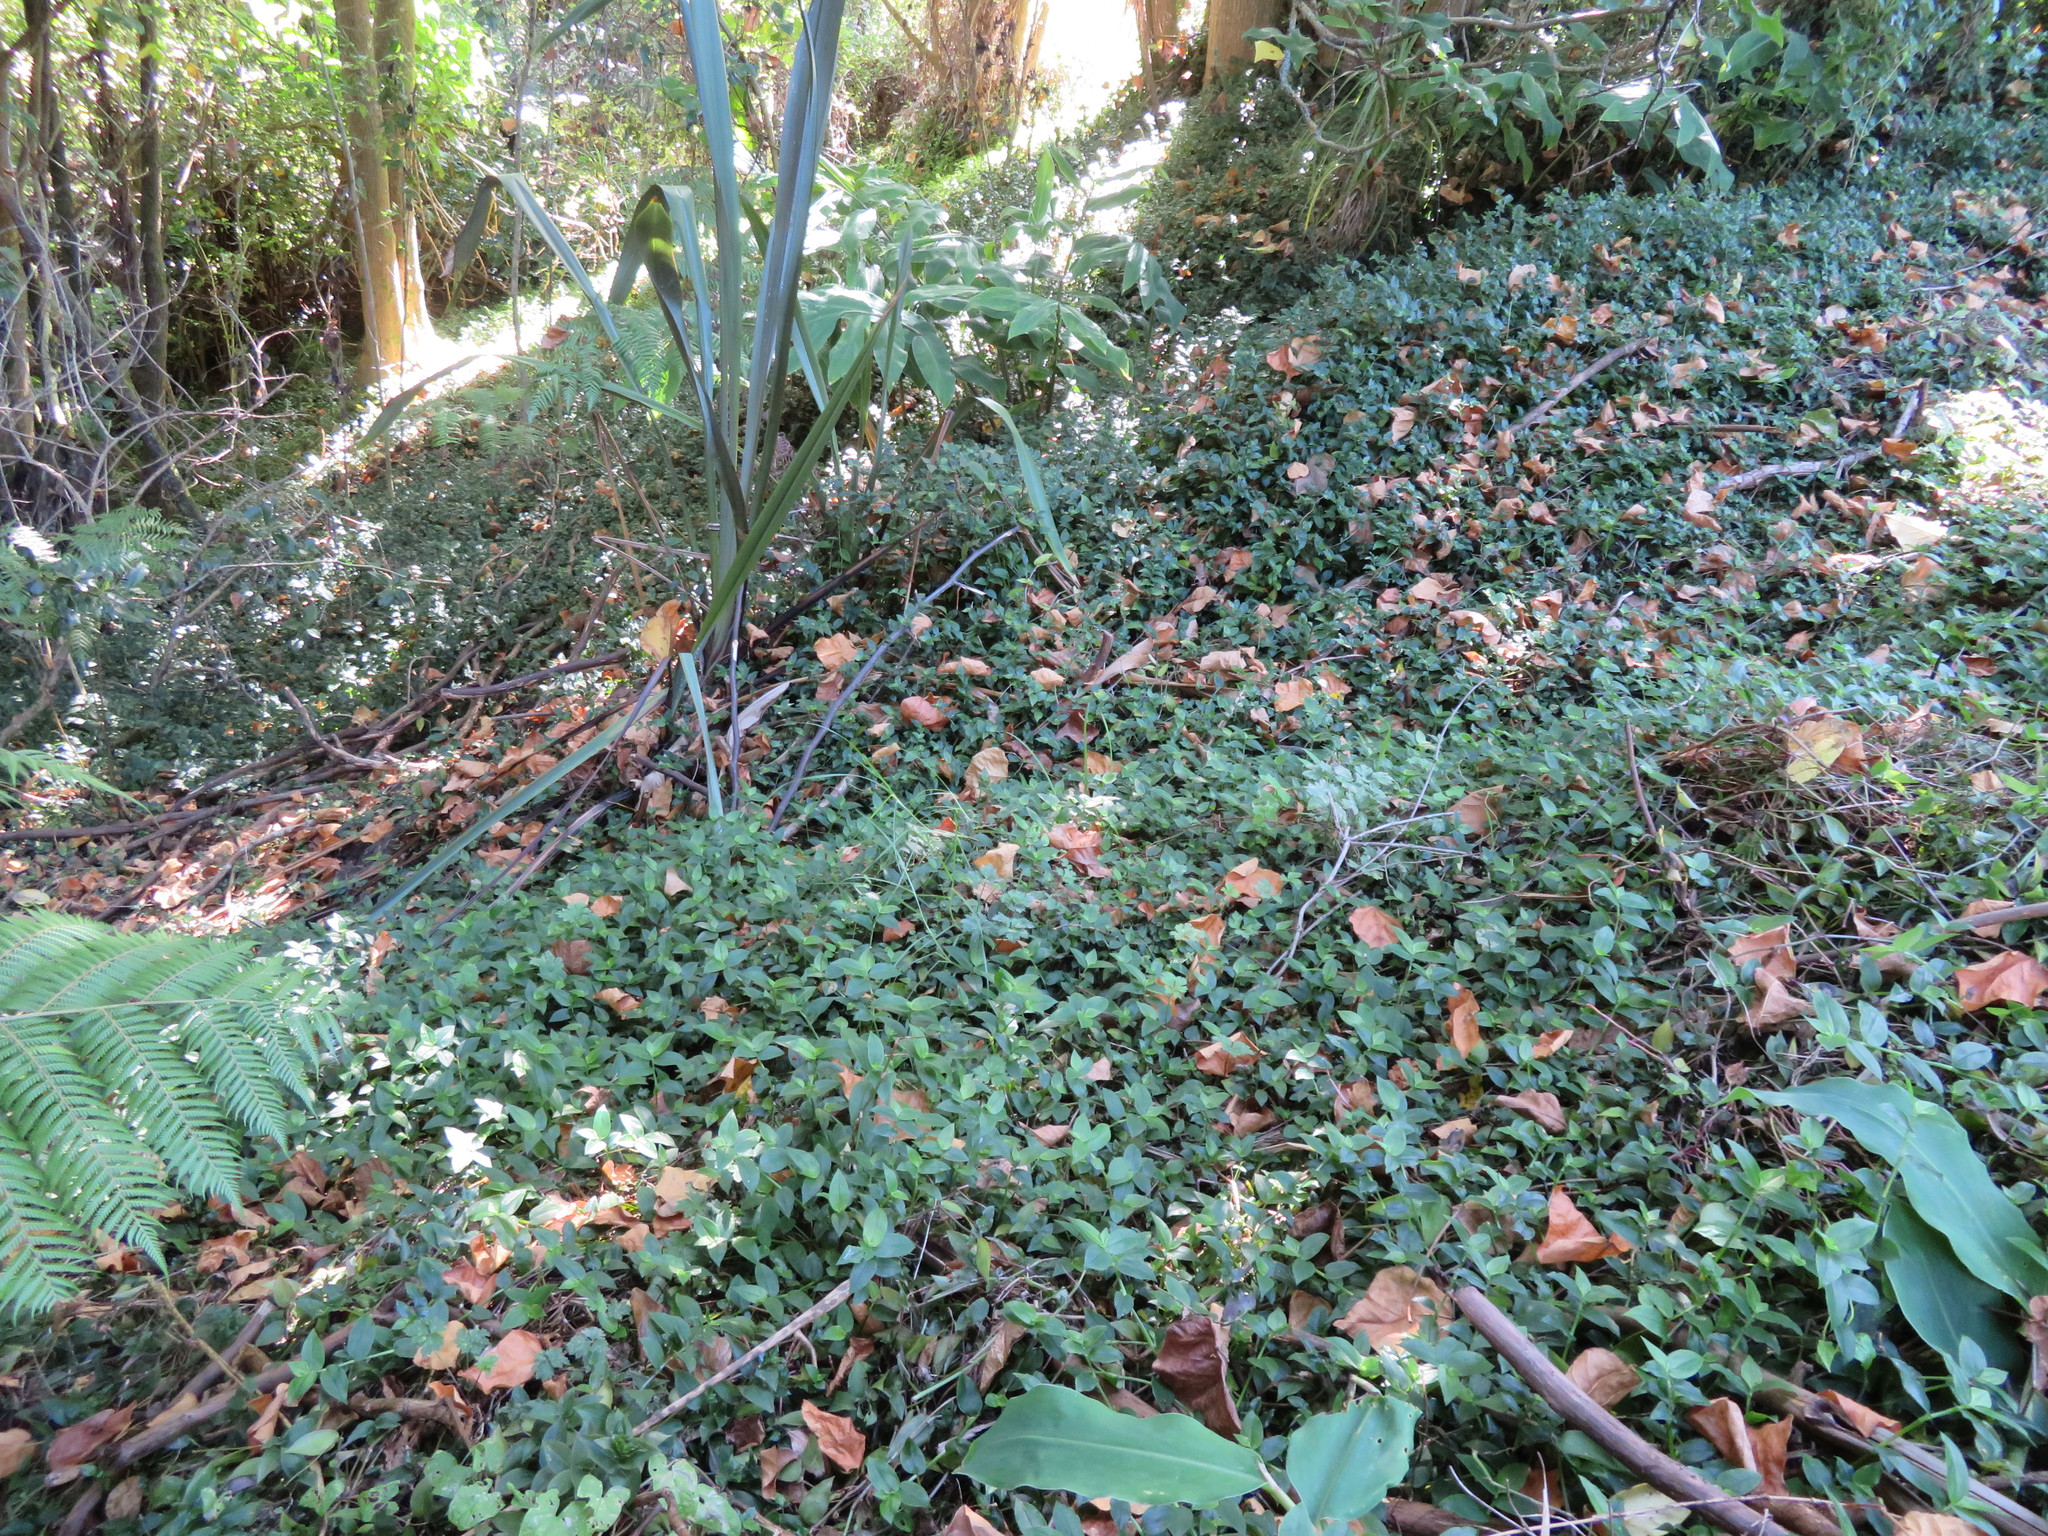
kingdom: Plantae
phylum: Tracheophyta
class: Liliopsida
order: Commelinales
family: Commelinaceae
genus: Tradescantia
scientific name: Tradescantia fluminensis
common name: Wandering-jew
